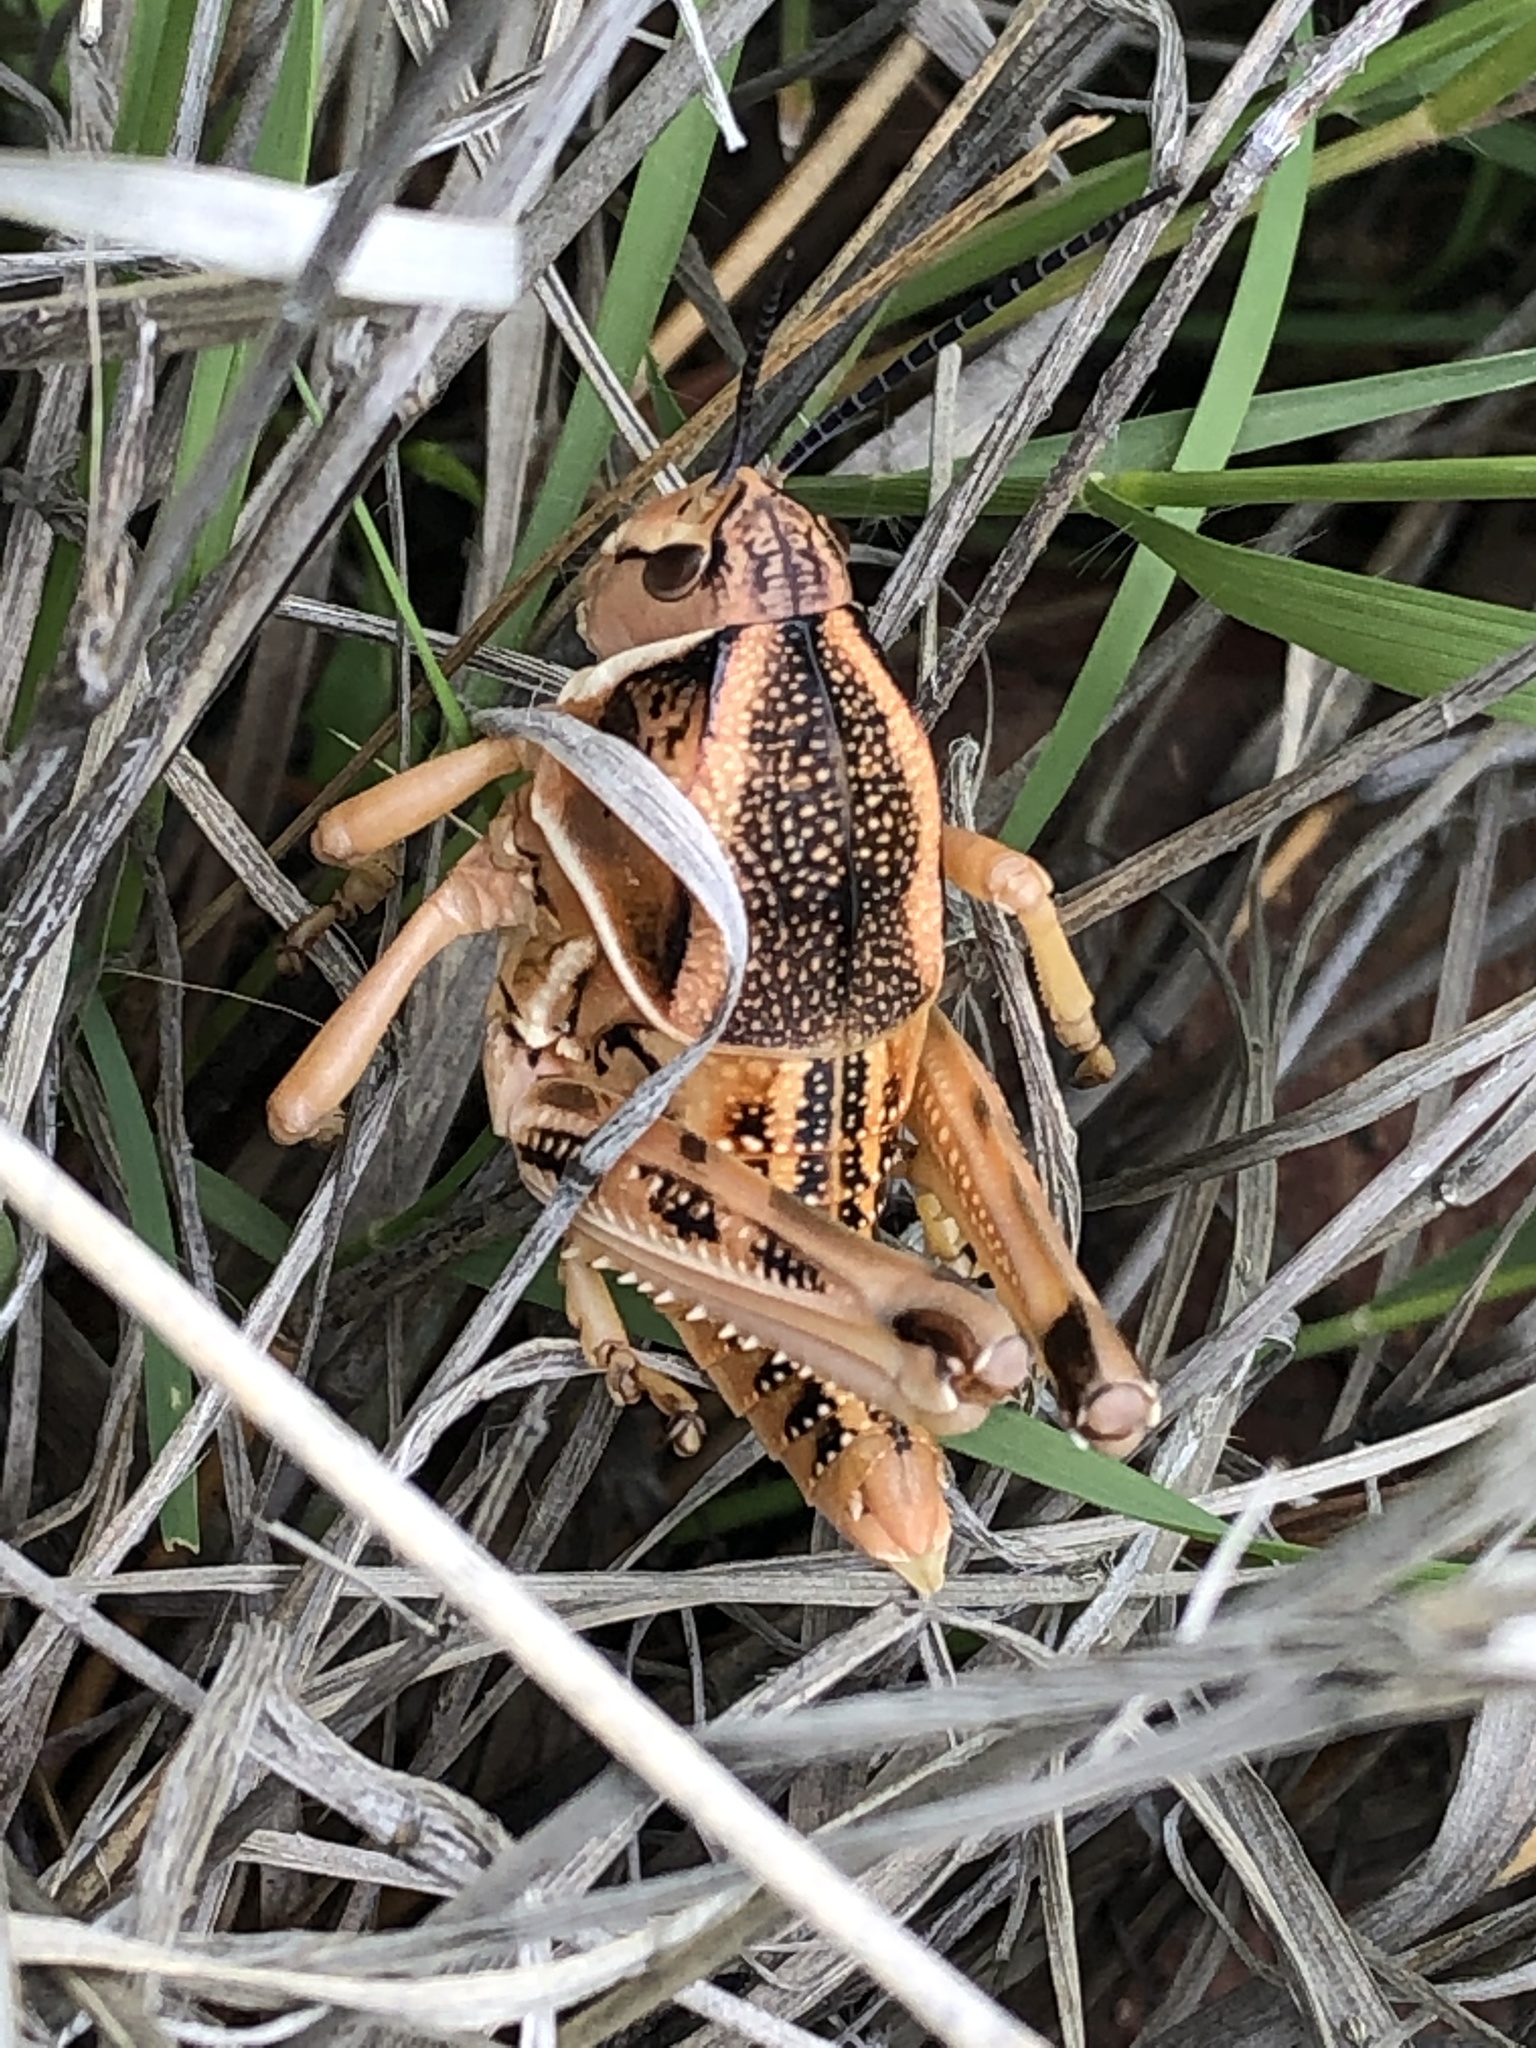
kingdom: Animalia
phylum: Arthropoda
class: Insecta
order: Orthoptera
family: Romaleidae
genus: Brachystola
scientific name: Brachystola magna
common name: Plains lubber grasshopper
